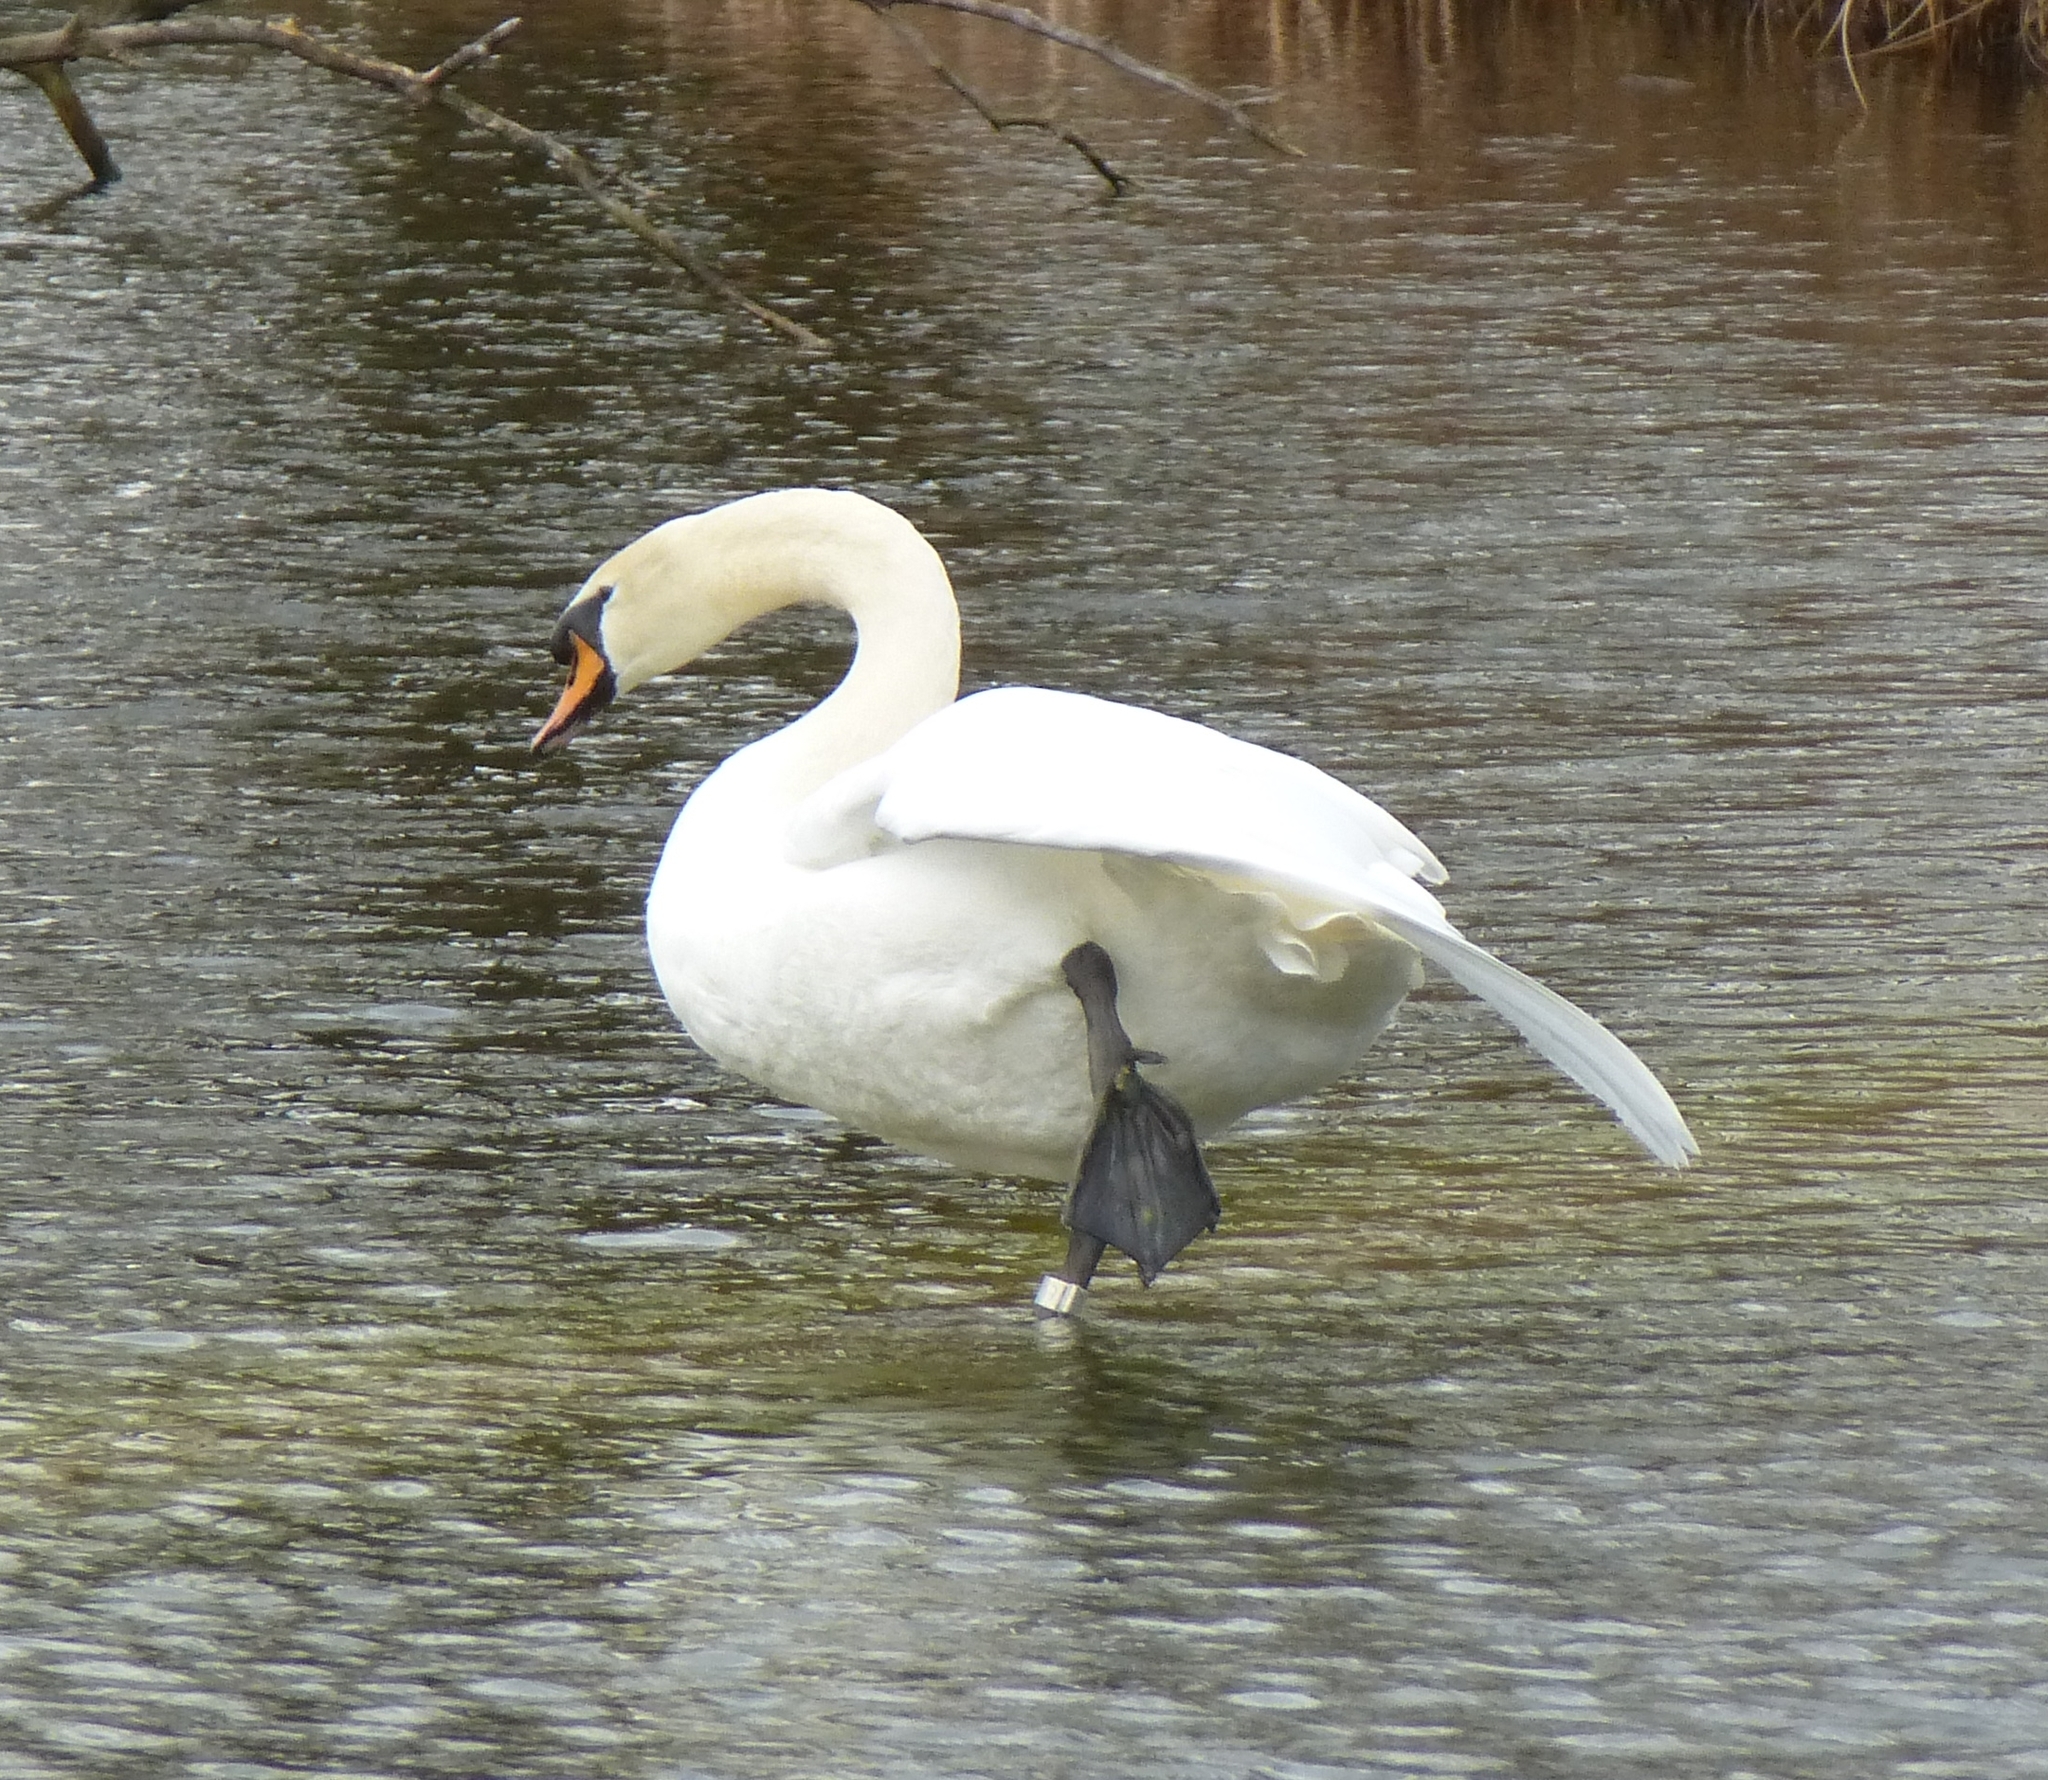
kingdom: Animalia
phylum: Chordata
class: Aves
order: Anseriformes
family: Anatidae
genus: Cygnus
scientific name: Cygnus olor
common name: Mute swan
